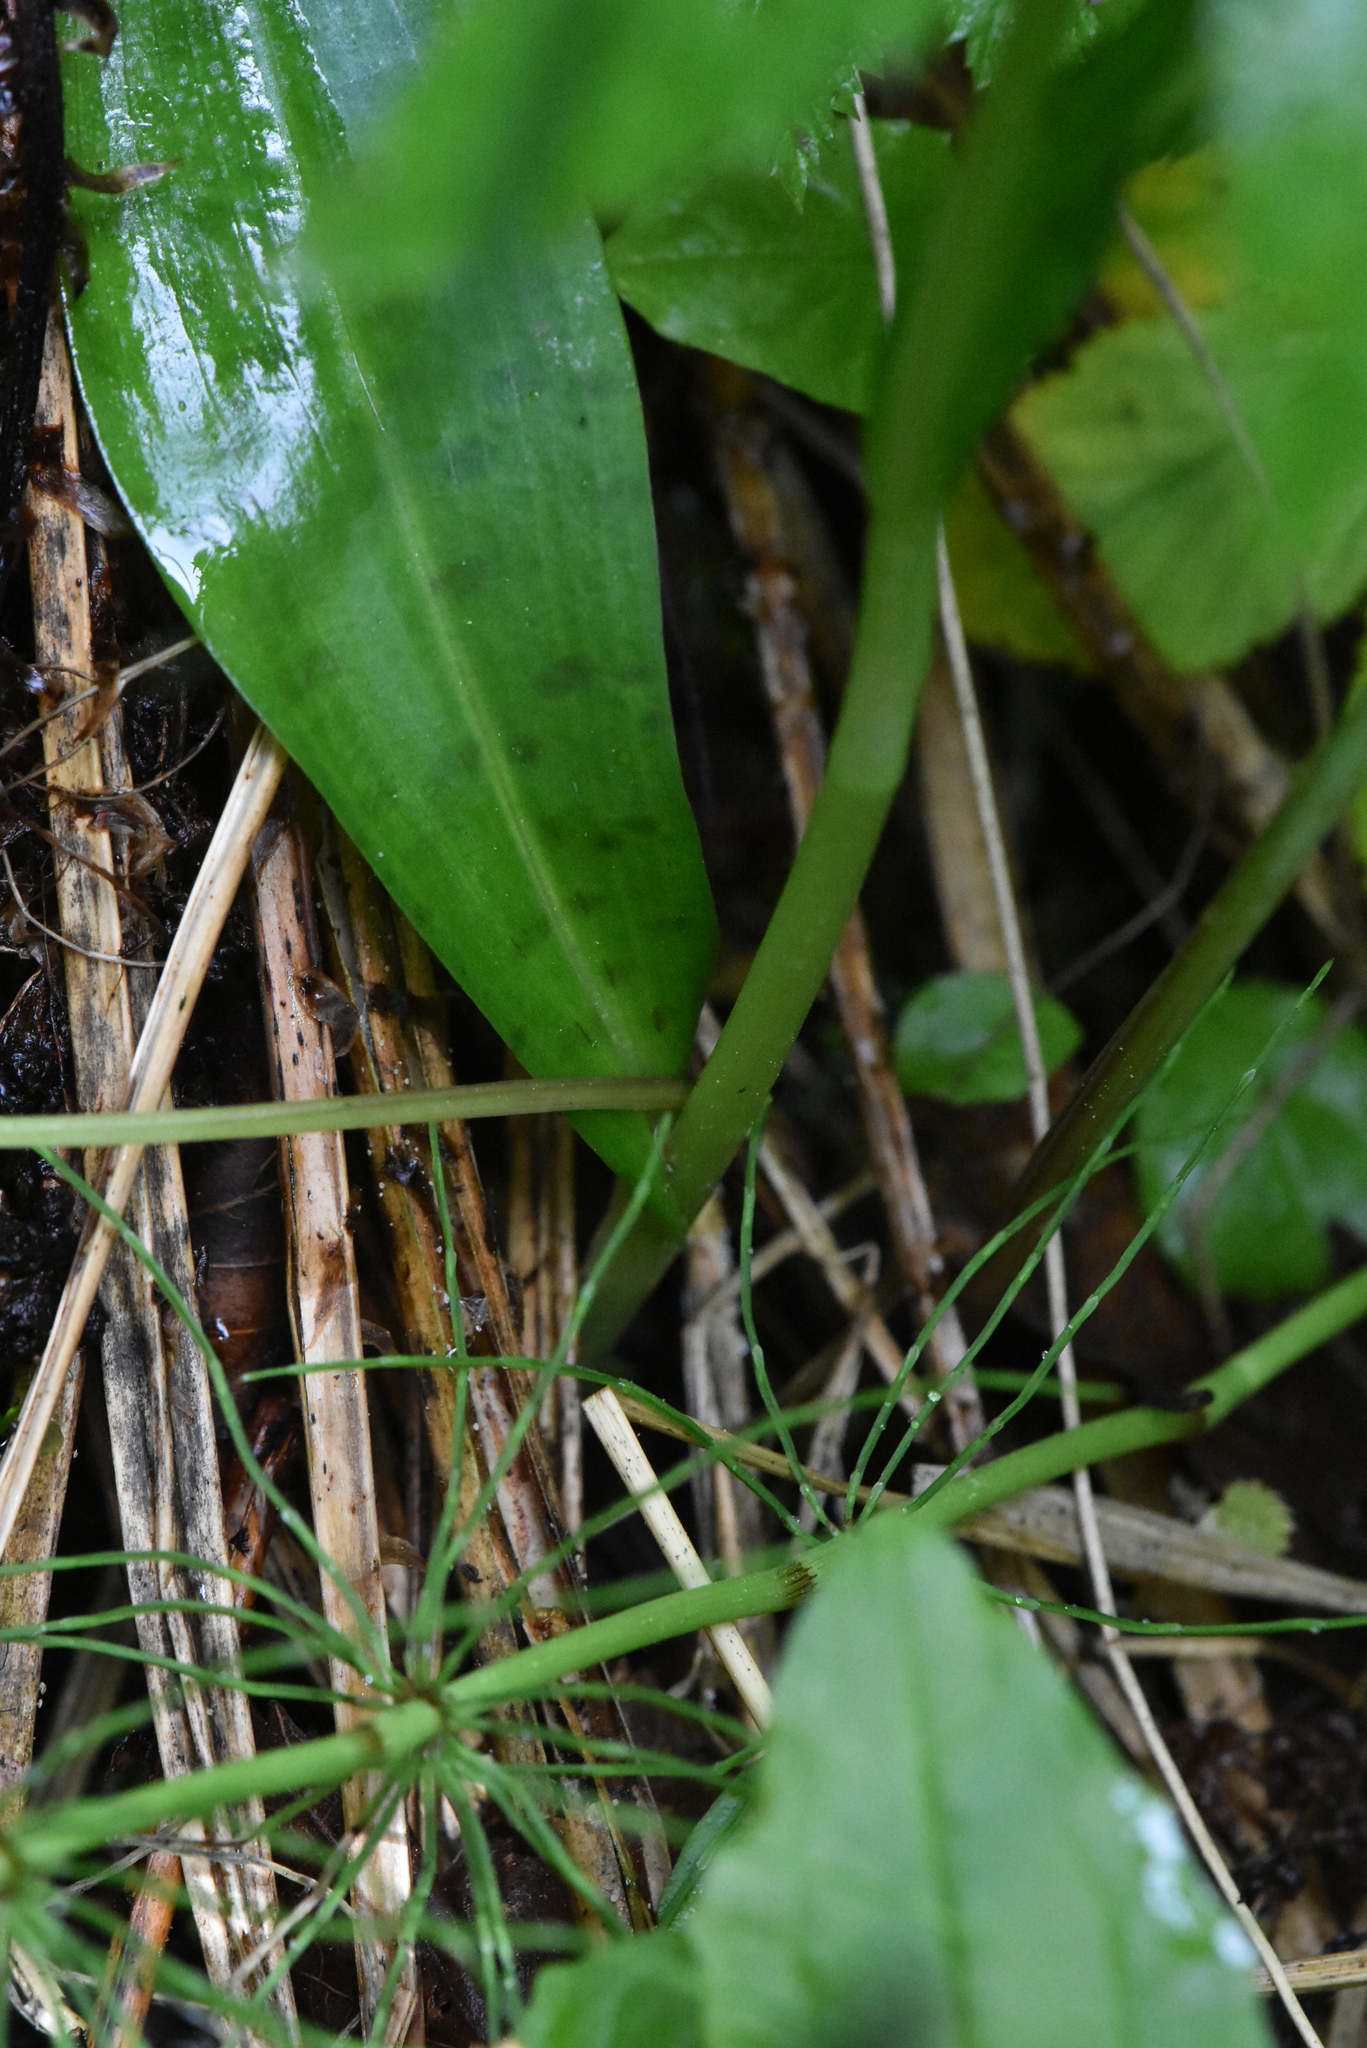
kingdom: Plantae
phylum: Tracheophyta
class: Liliopsida
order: Asparagales
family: Orchidaceae
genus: Dactylorhiza
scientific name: Dactylorhiza maculata
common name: Heath spotted-orchid
